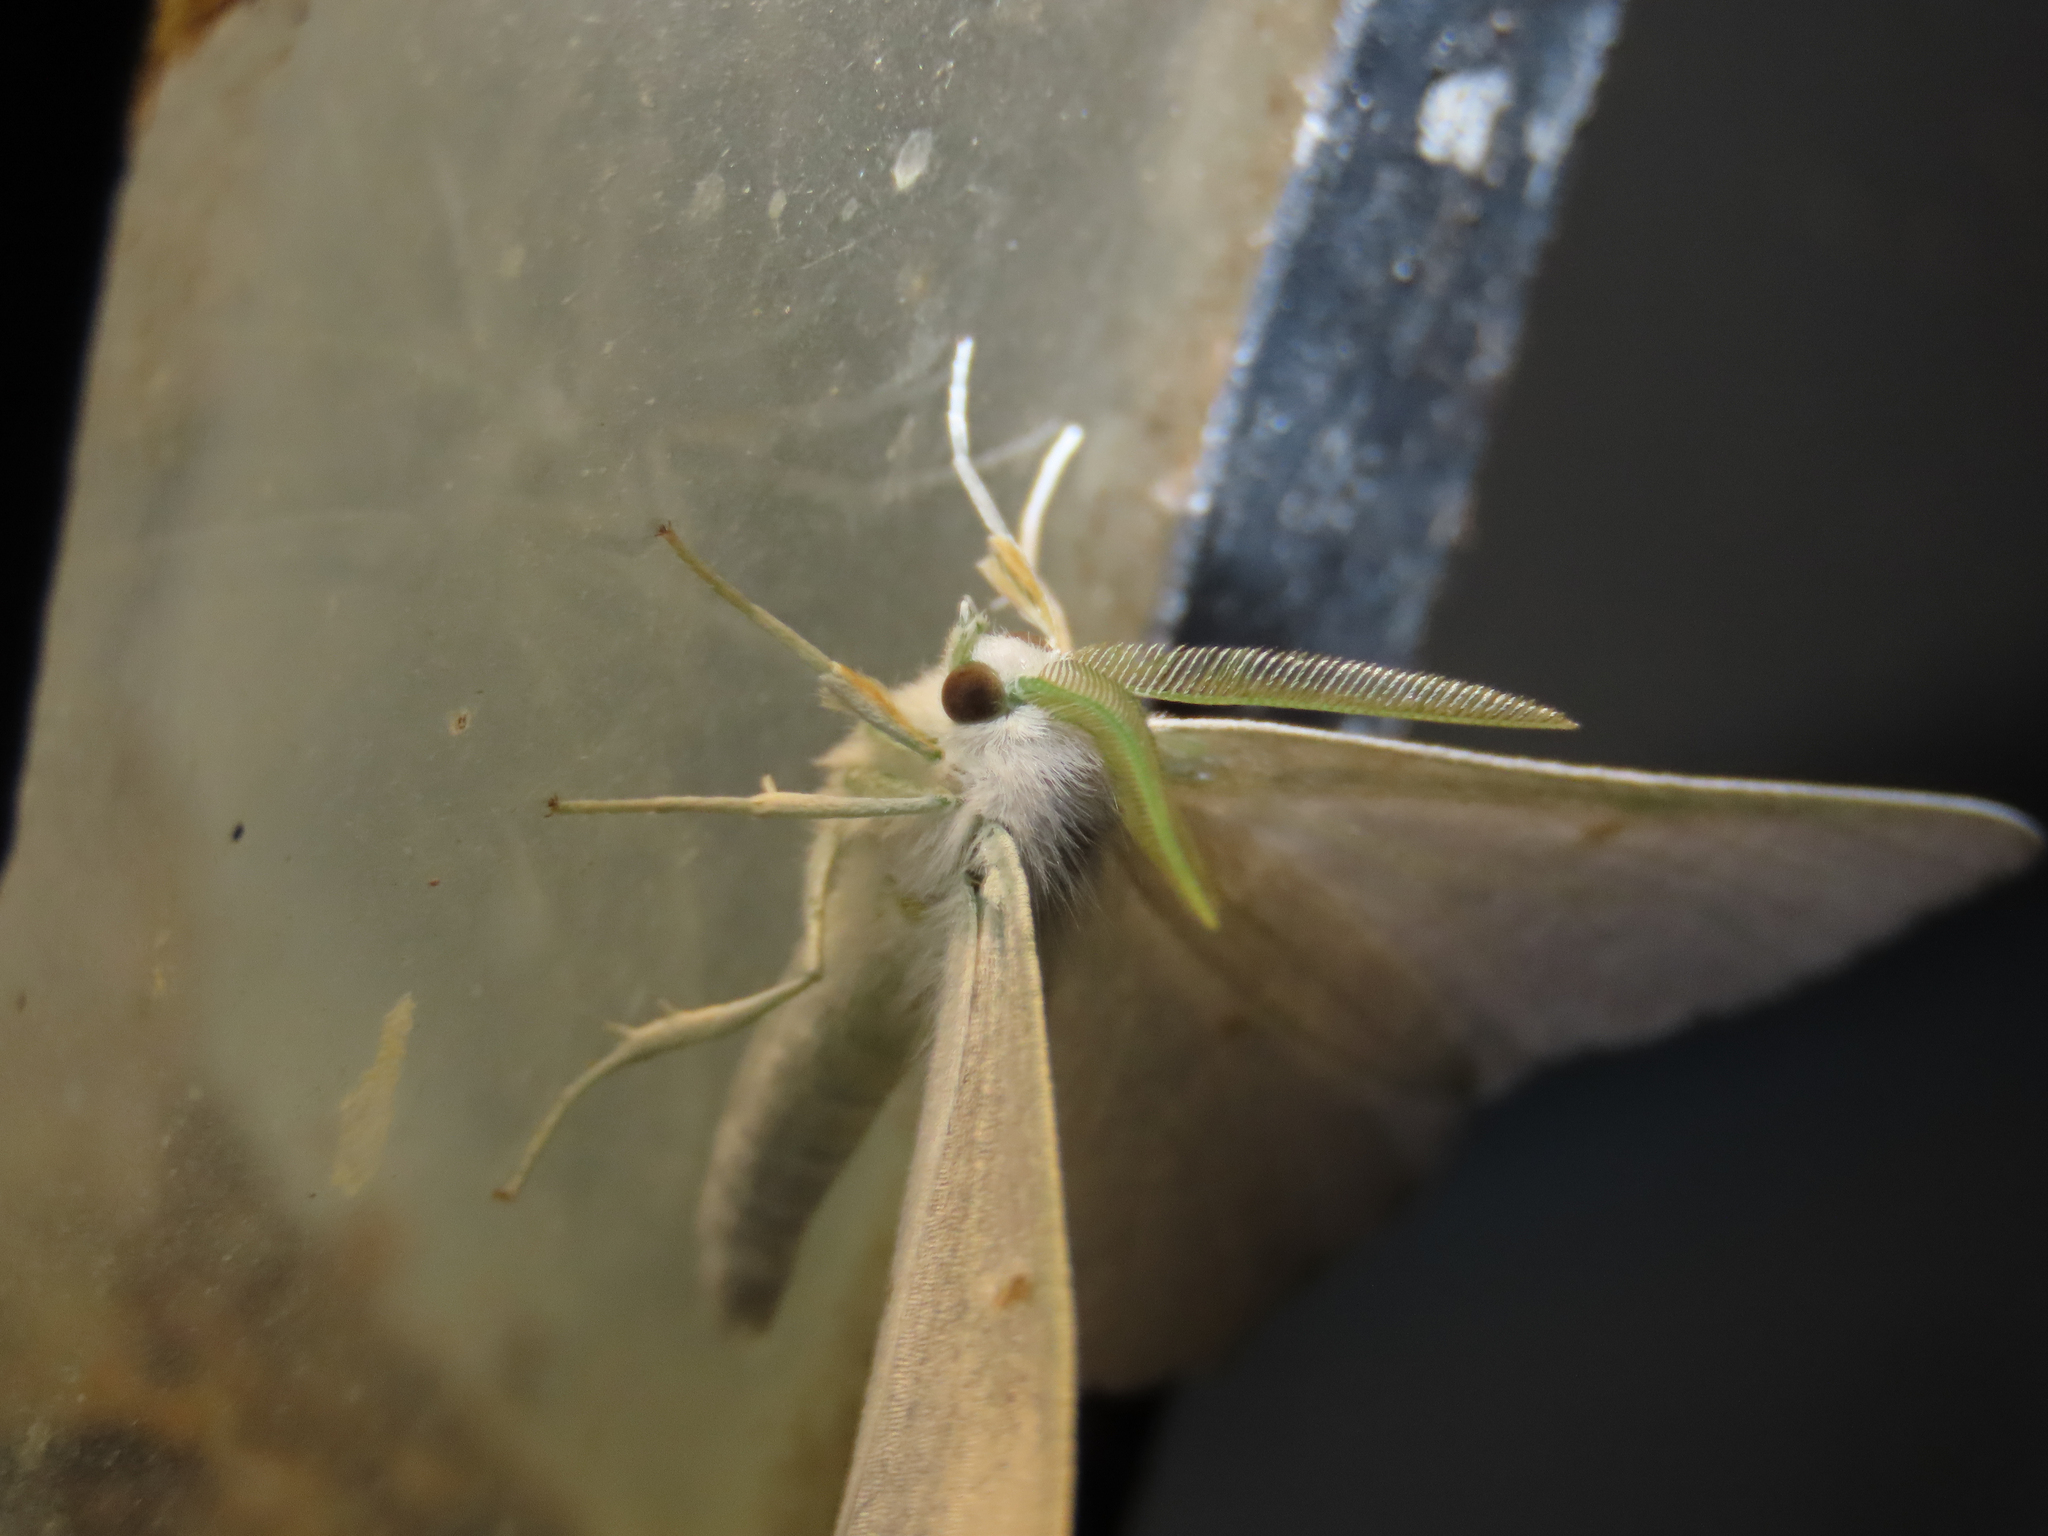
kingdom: Animalia
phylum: Arthropoda
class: Insecta
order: Lepidoptera
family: Geometridae
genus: Ennomos
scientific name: Ennomos subsignaria
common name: Elm spanworm
